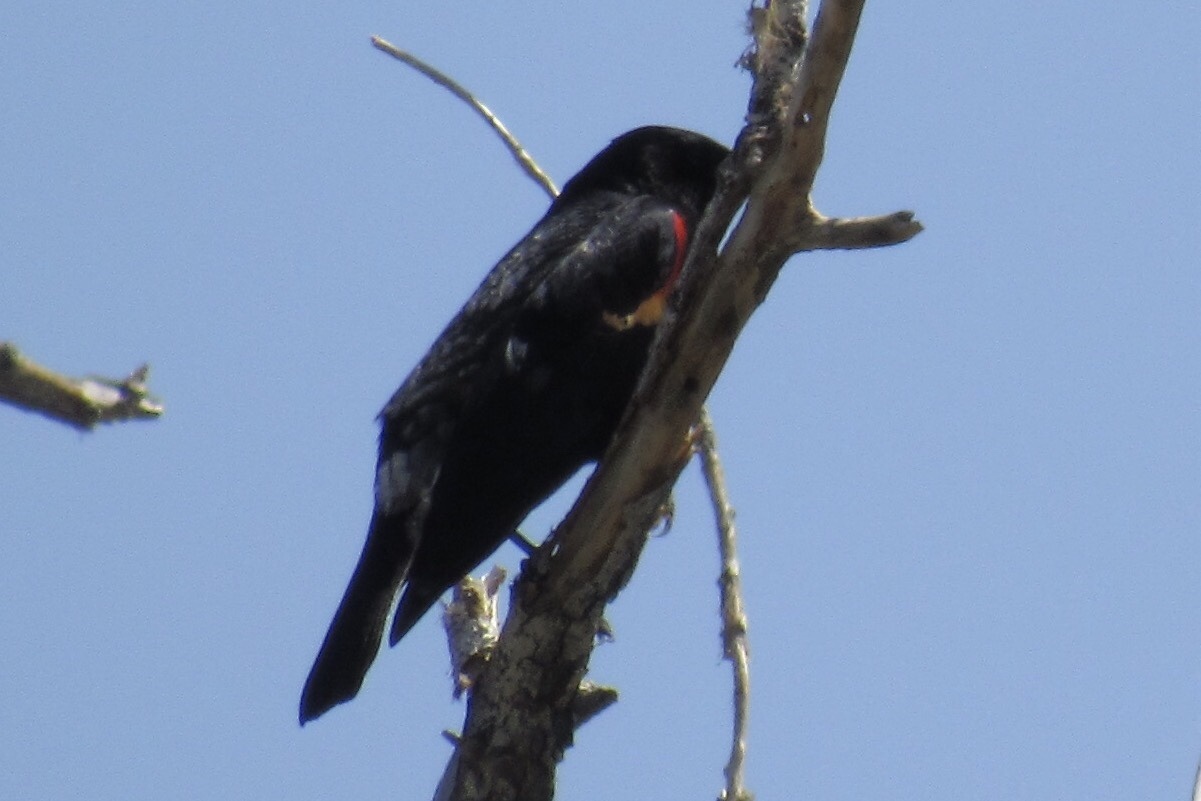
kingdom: Animalia
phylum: Chordata
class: Aves
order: Passeriformes
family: Icteridae
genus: Agelaius
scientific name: Agelaius phoeniceus
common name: Red-winged blackbird
